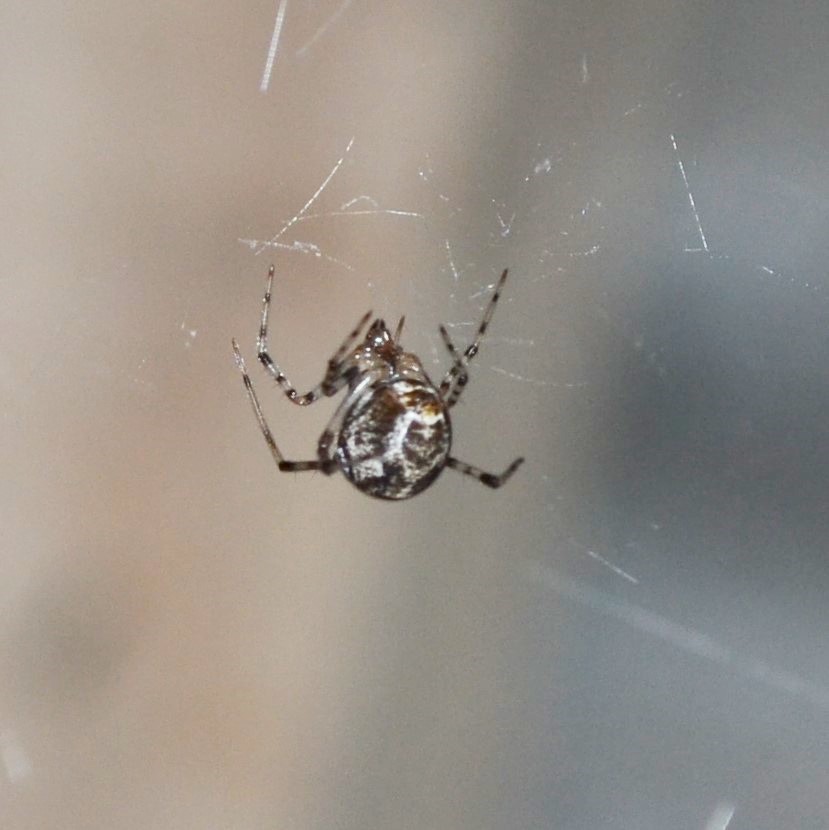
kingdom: Animalia
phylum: Arthropoda
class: Arachnida
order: Araneae
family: Theridiidae
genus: Parasteatoda
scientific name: Parasteatoda tepidariorum
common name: Common house spider
